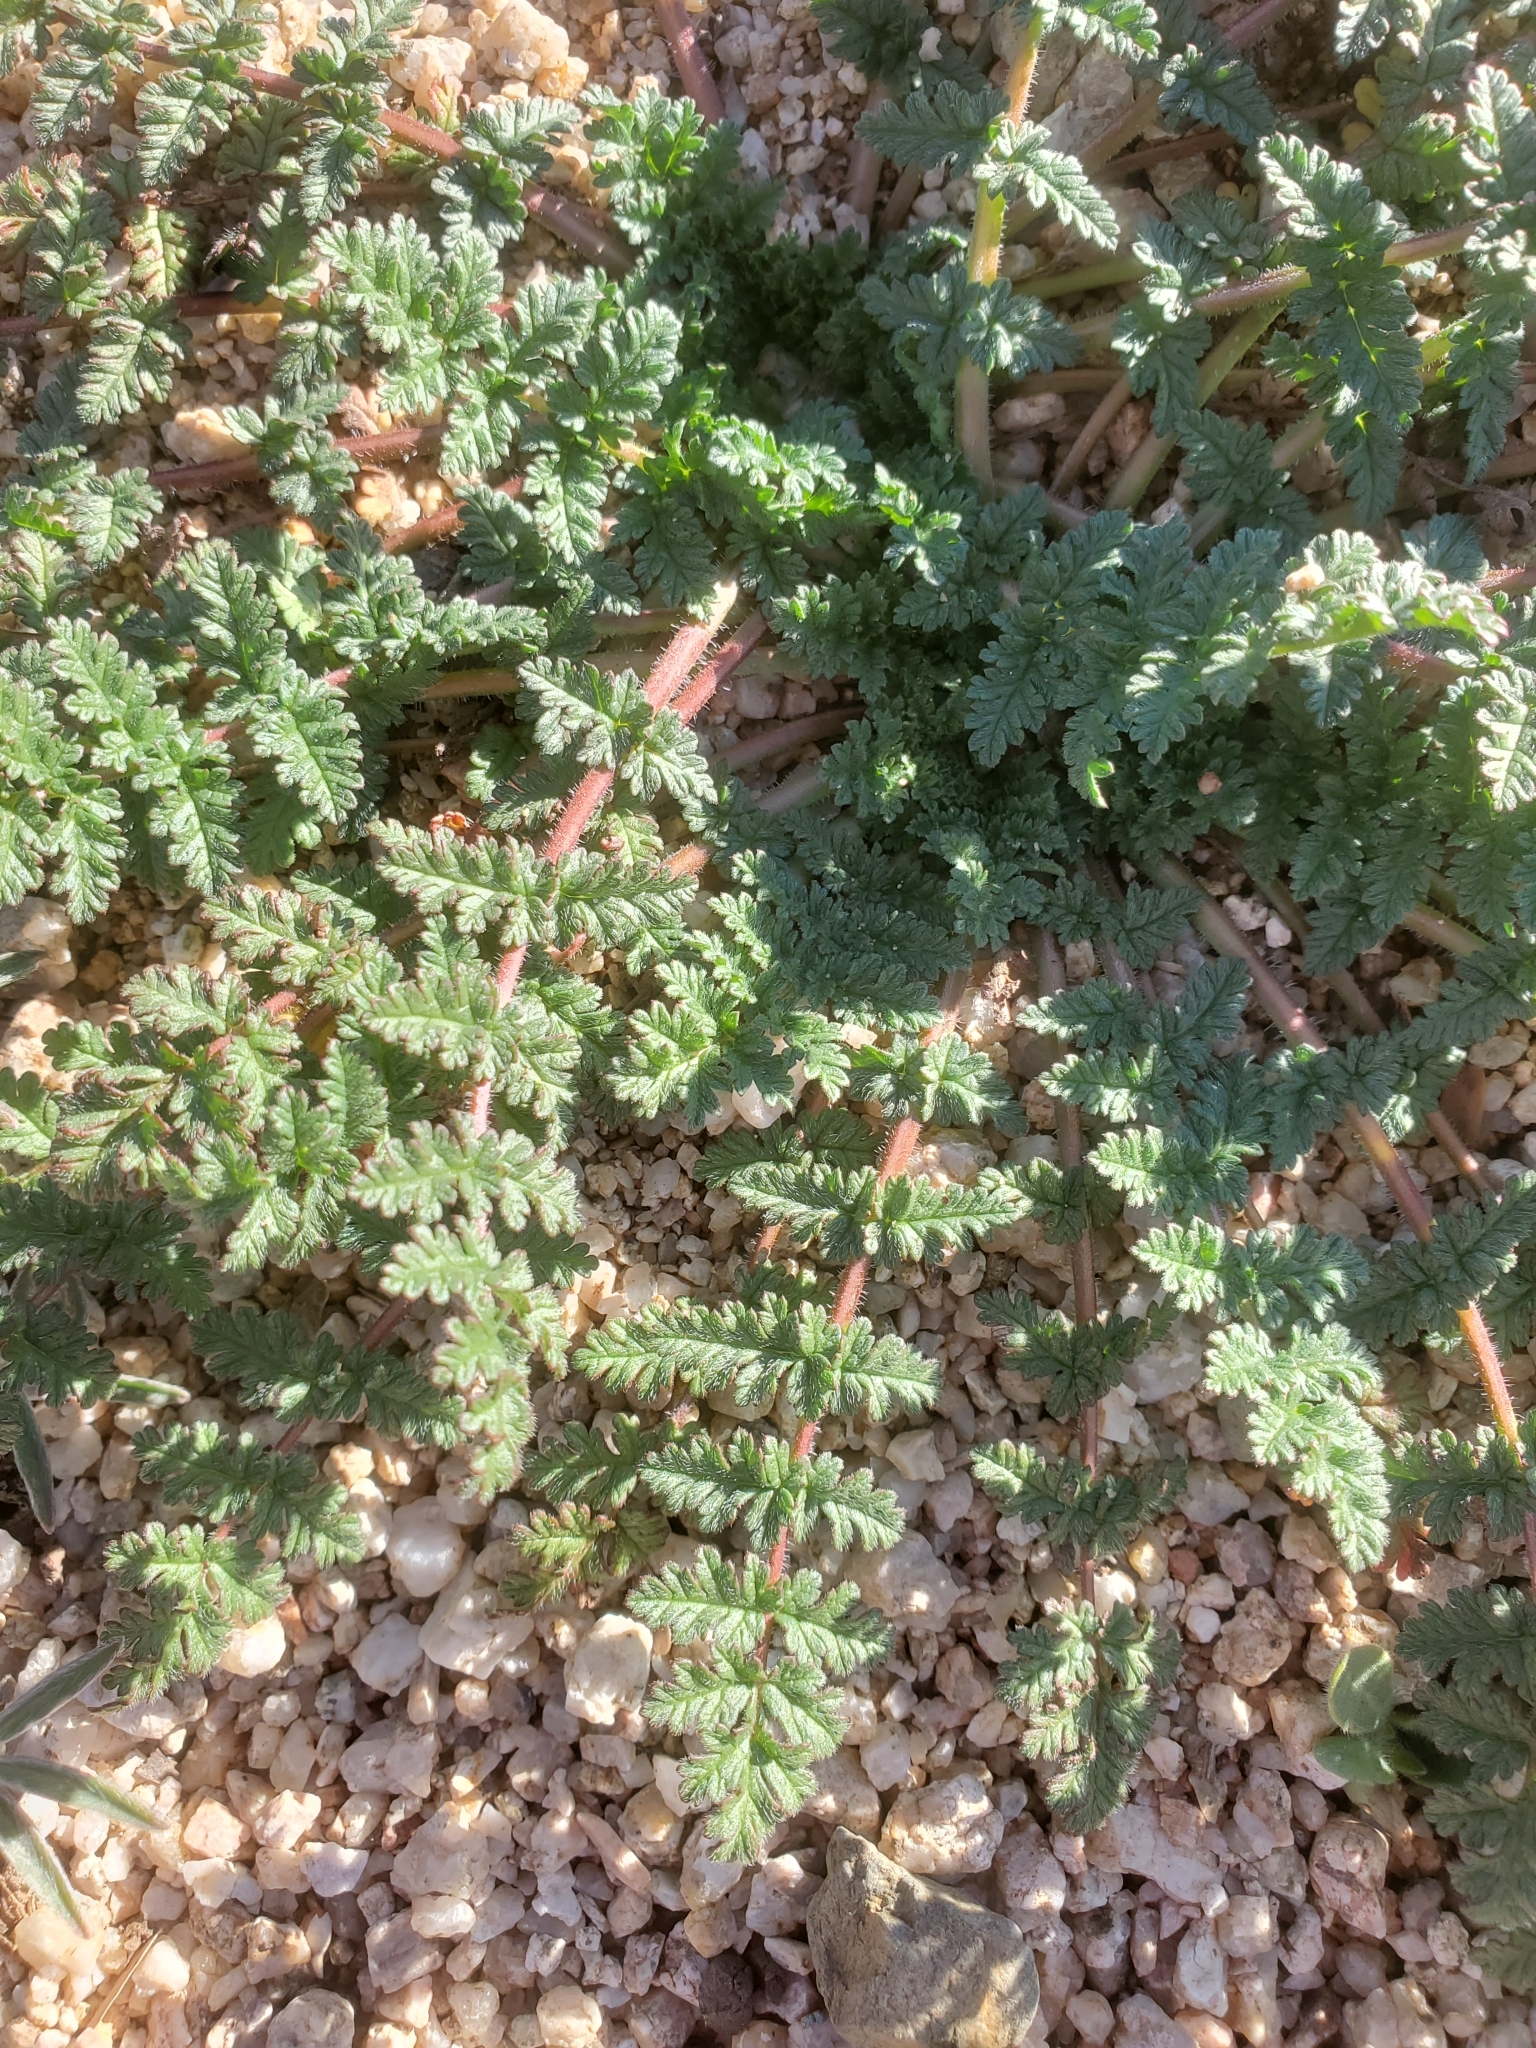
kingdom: Plantae
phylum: Tracheophyta
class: Magnoliopsida
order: Geraniales
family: Geraniaceae
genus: Erodium
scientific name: Erodium cicutarium
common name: Common stork's-bill
